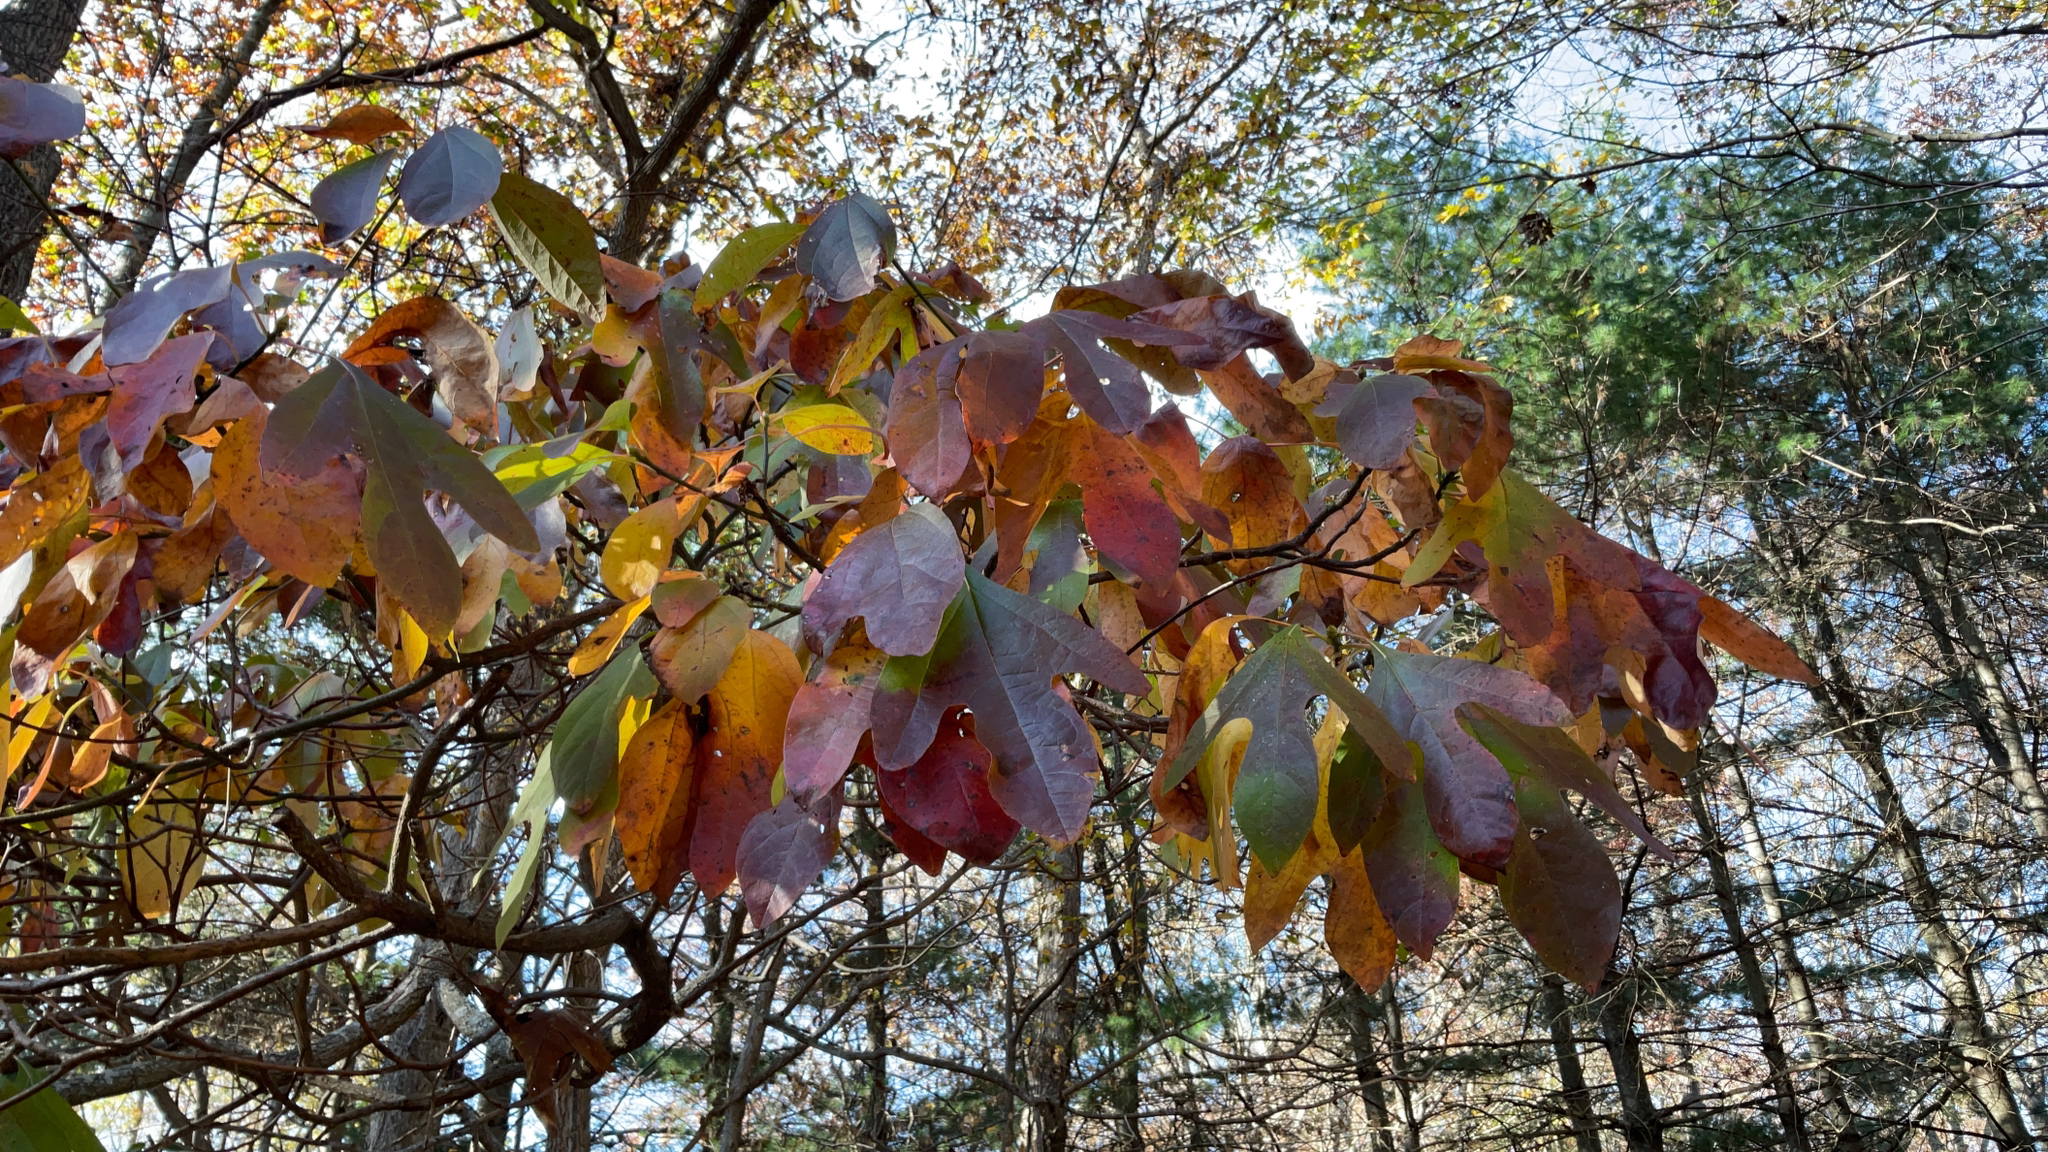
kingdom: Plantae
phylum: Tracheophyta
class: Magnoliopsida
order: Laurales
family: Lauraceae
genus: Sassafras
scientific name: Sassafras albidum
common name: Sassafras
